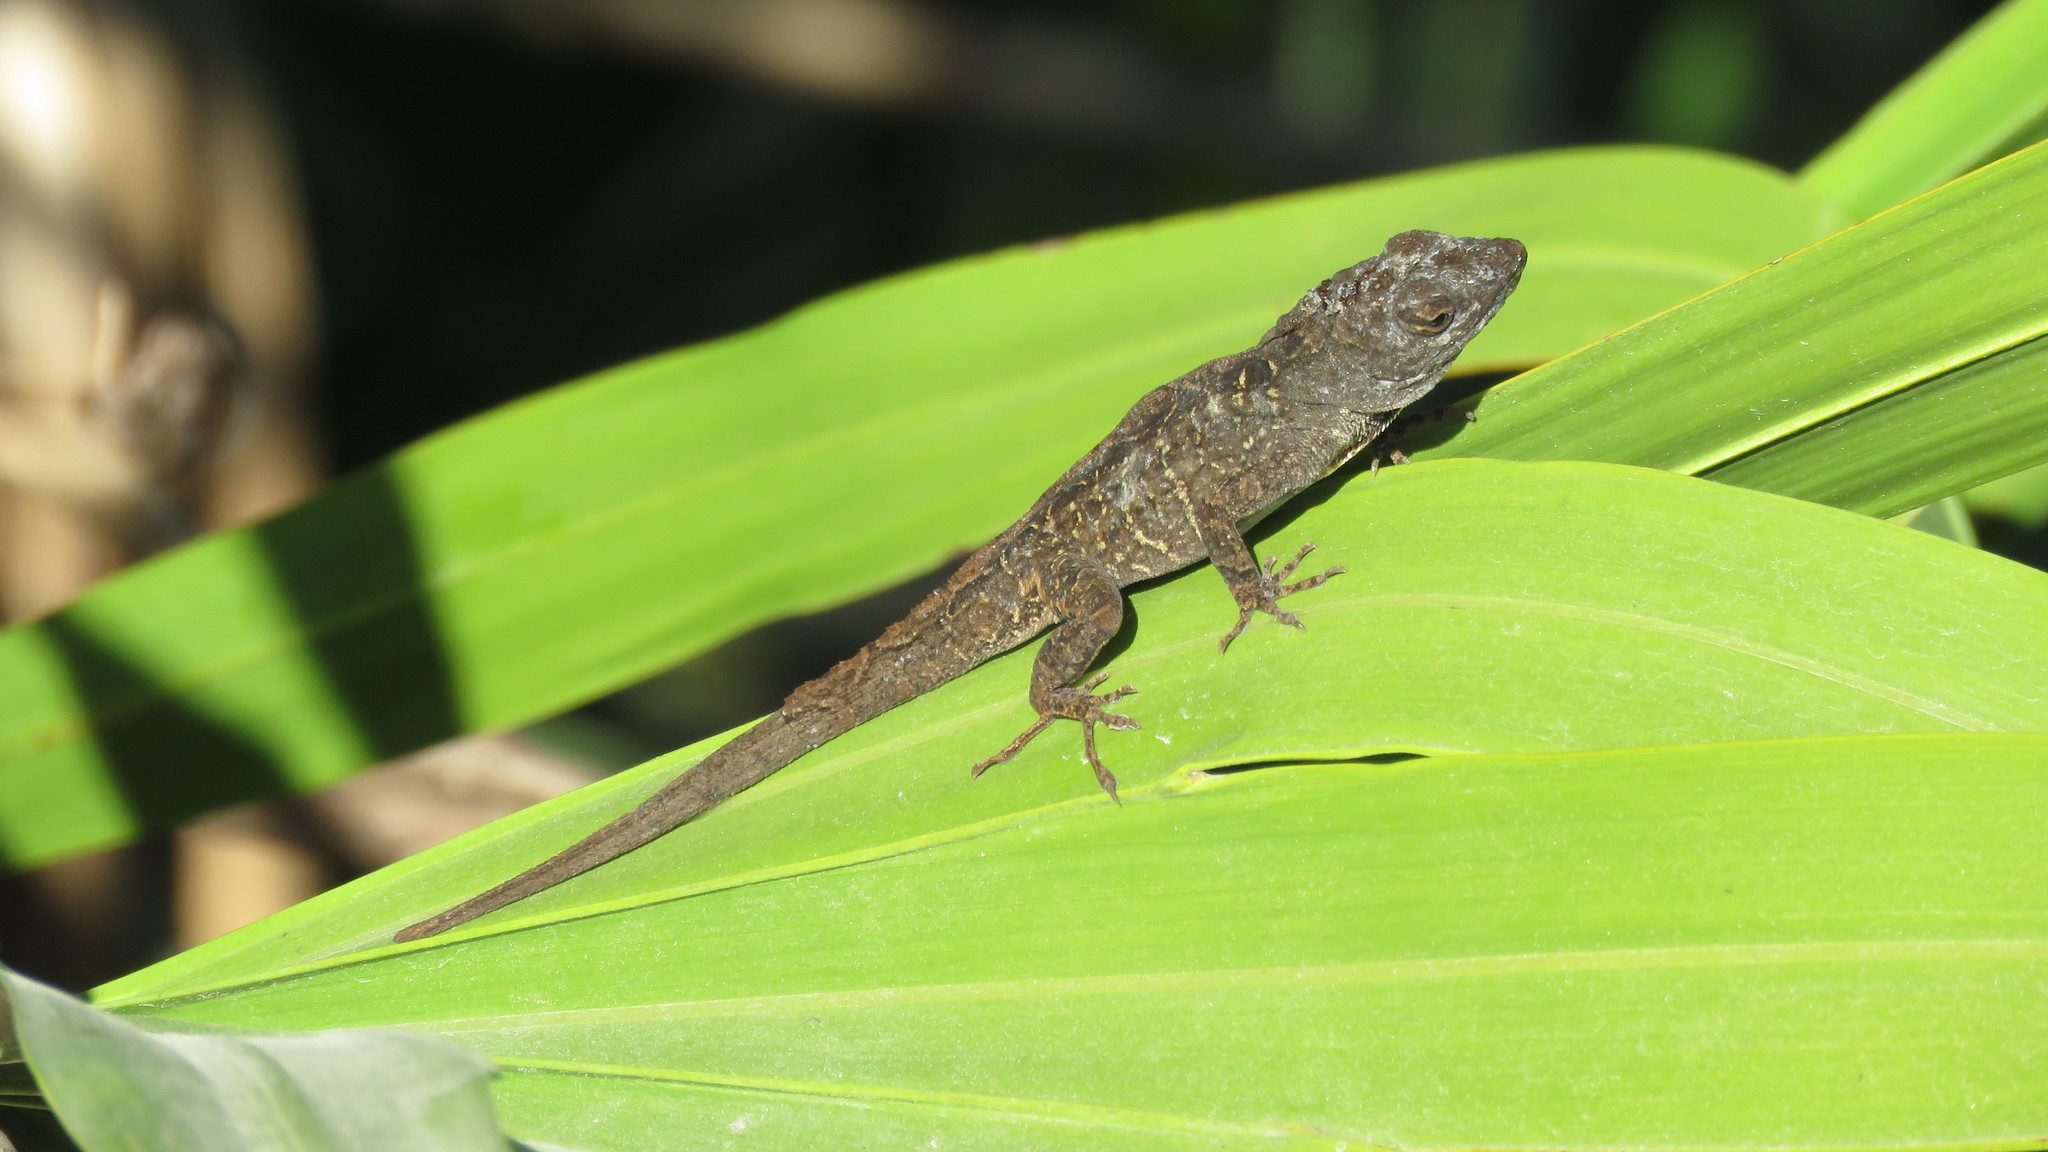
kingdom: Animalia
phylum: Chordata
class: Squamata
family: Dactyloidae
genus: Anolis
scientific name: Anolis sagrei
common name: Brown anole
